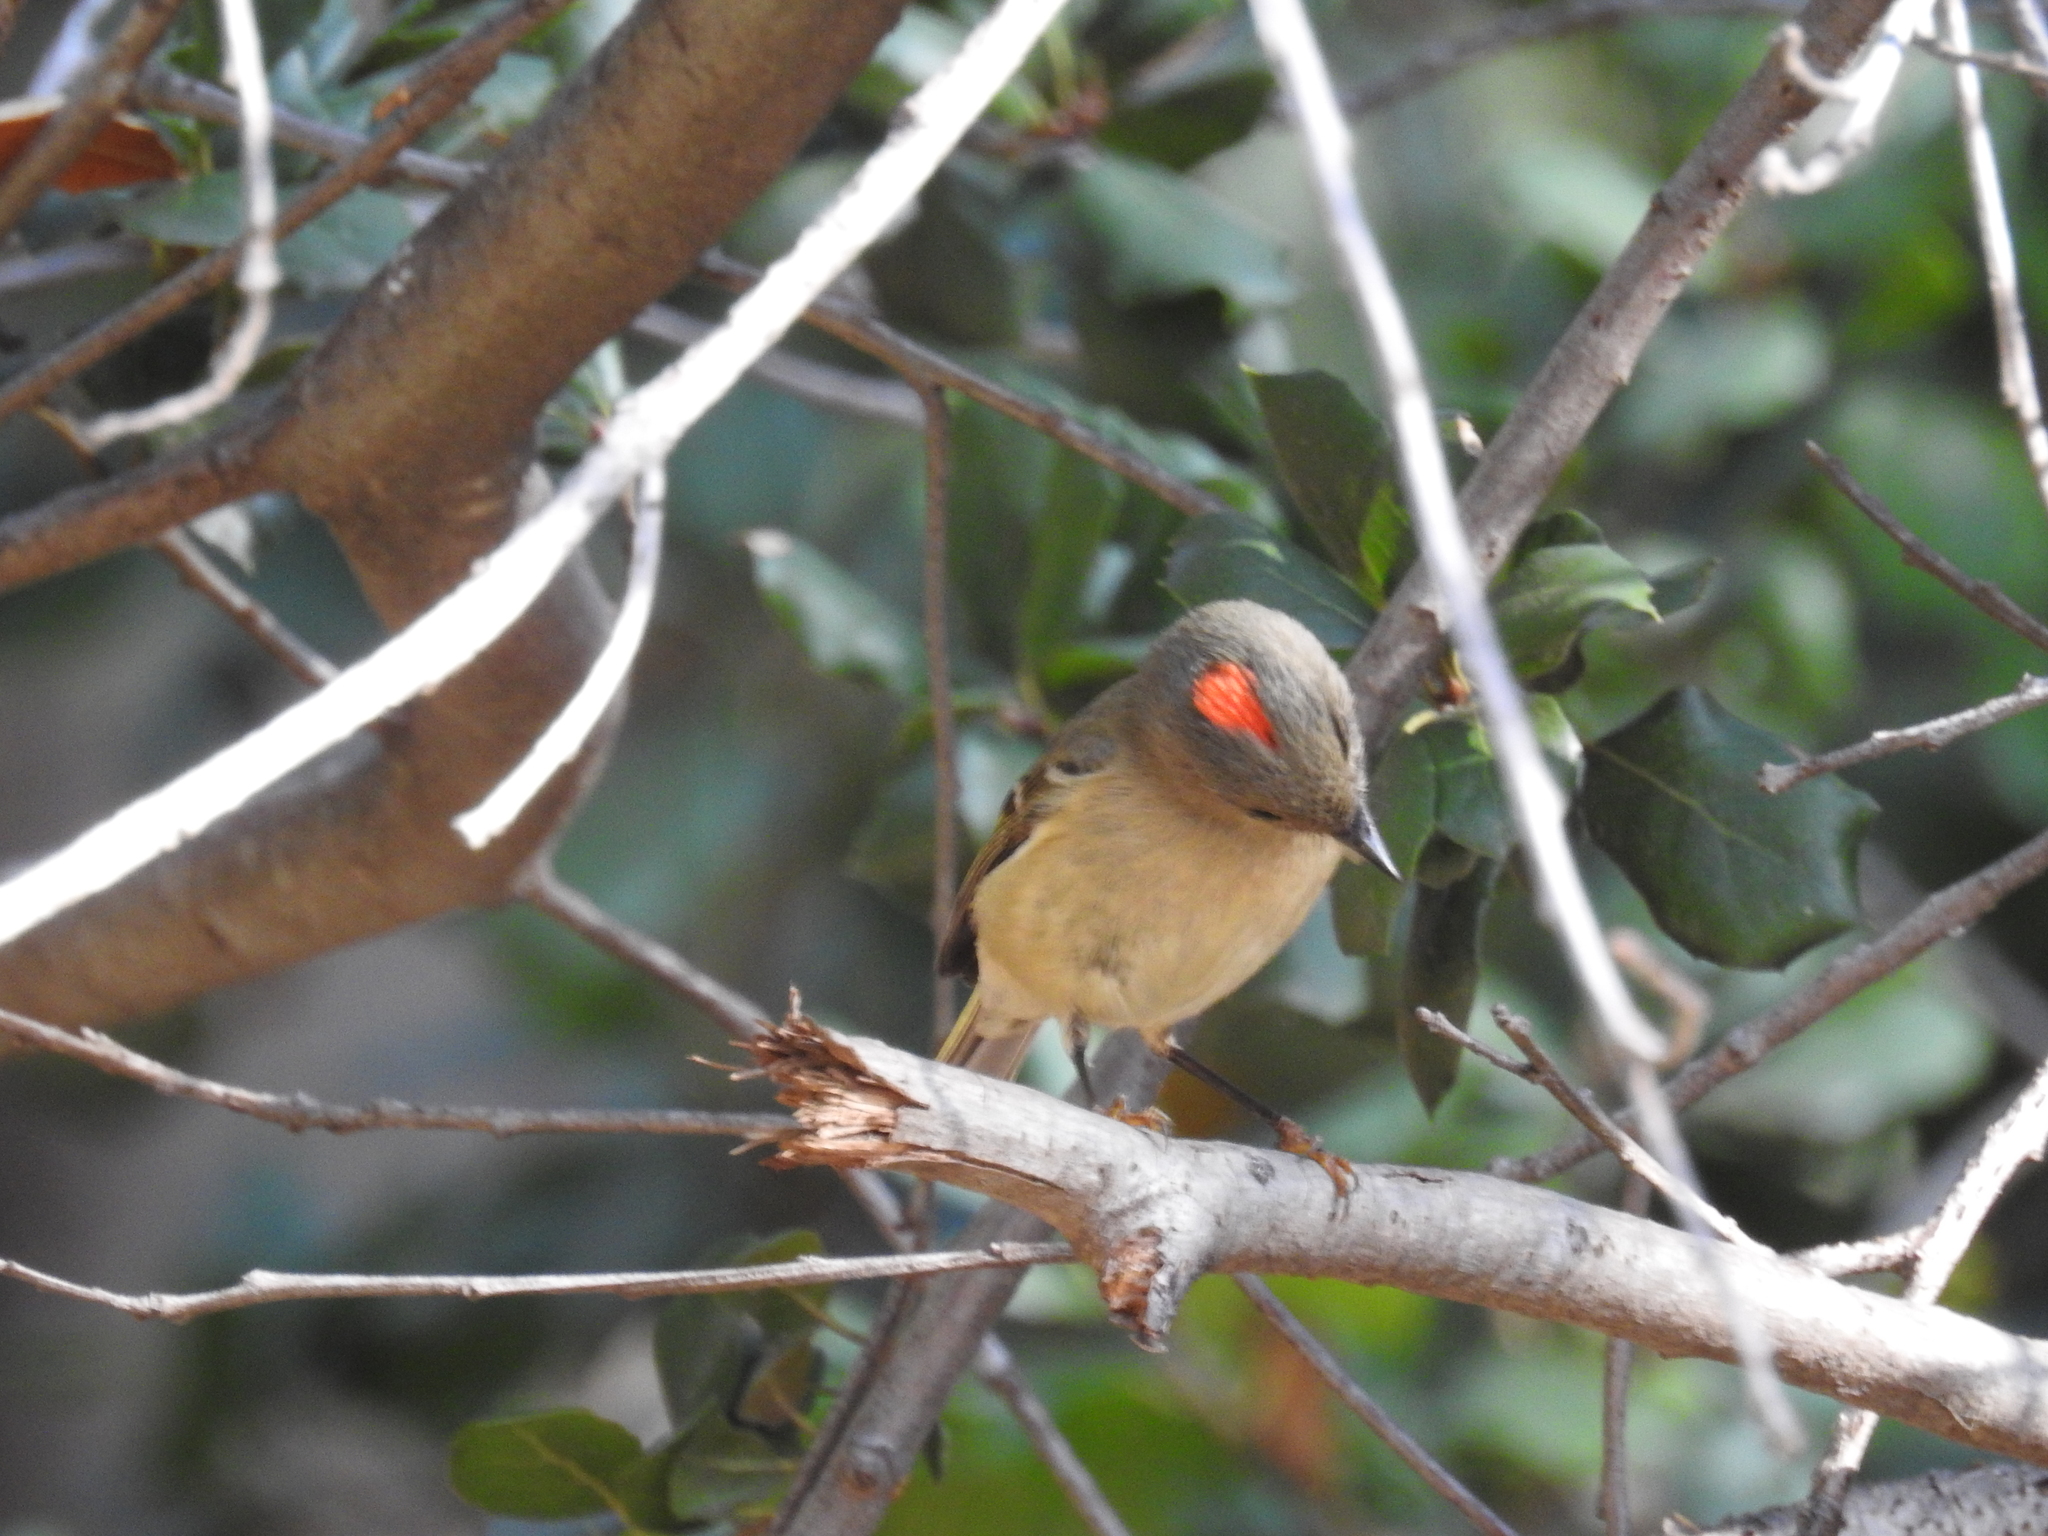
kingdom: Animalia
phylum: Chordata
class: Aves
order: Passeriformes
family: Regulidae
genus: Regulus
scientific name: Regulus calendula
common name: Ruby-crowned kinglet
